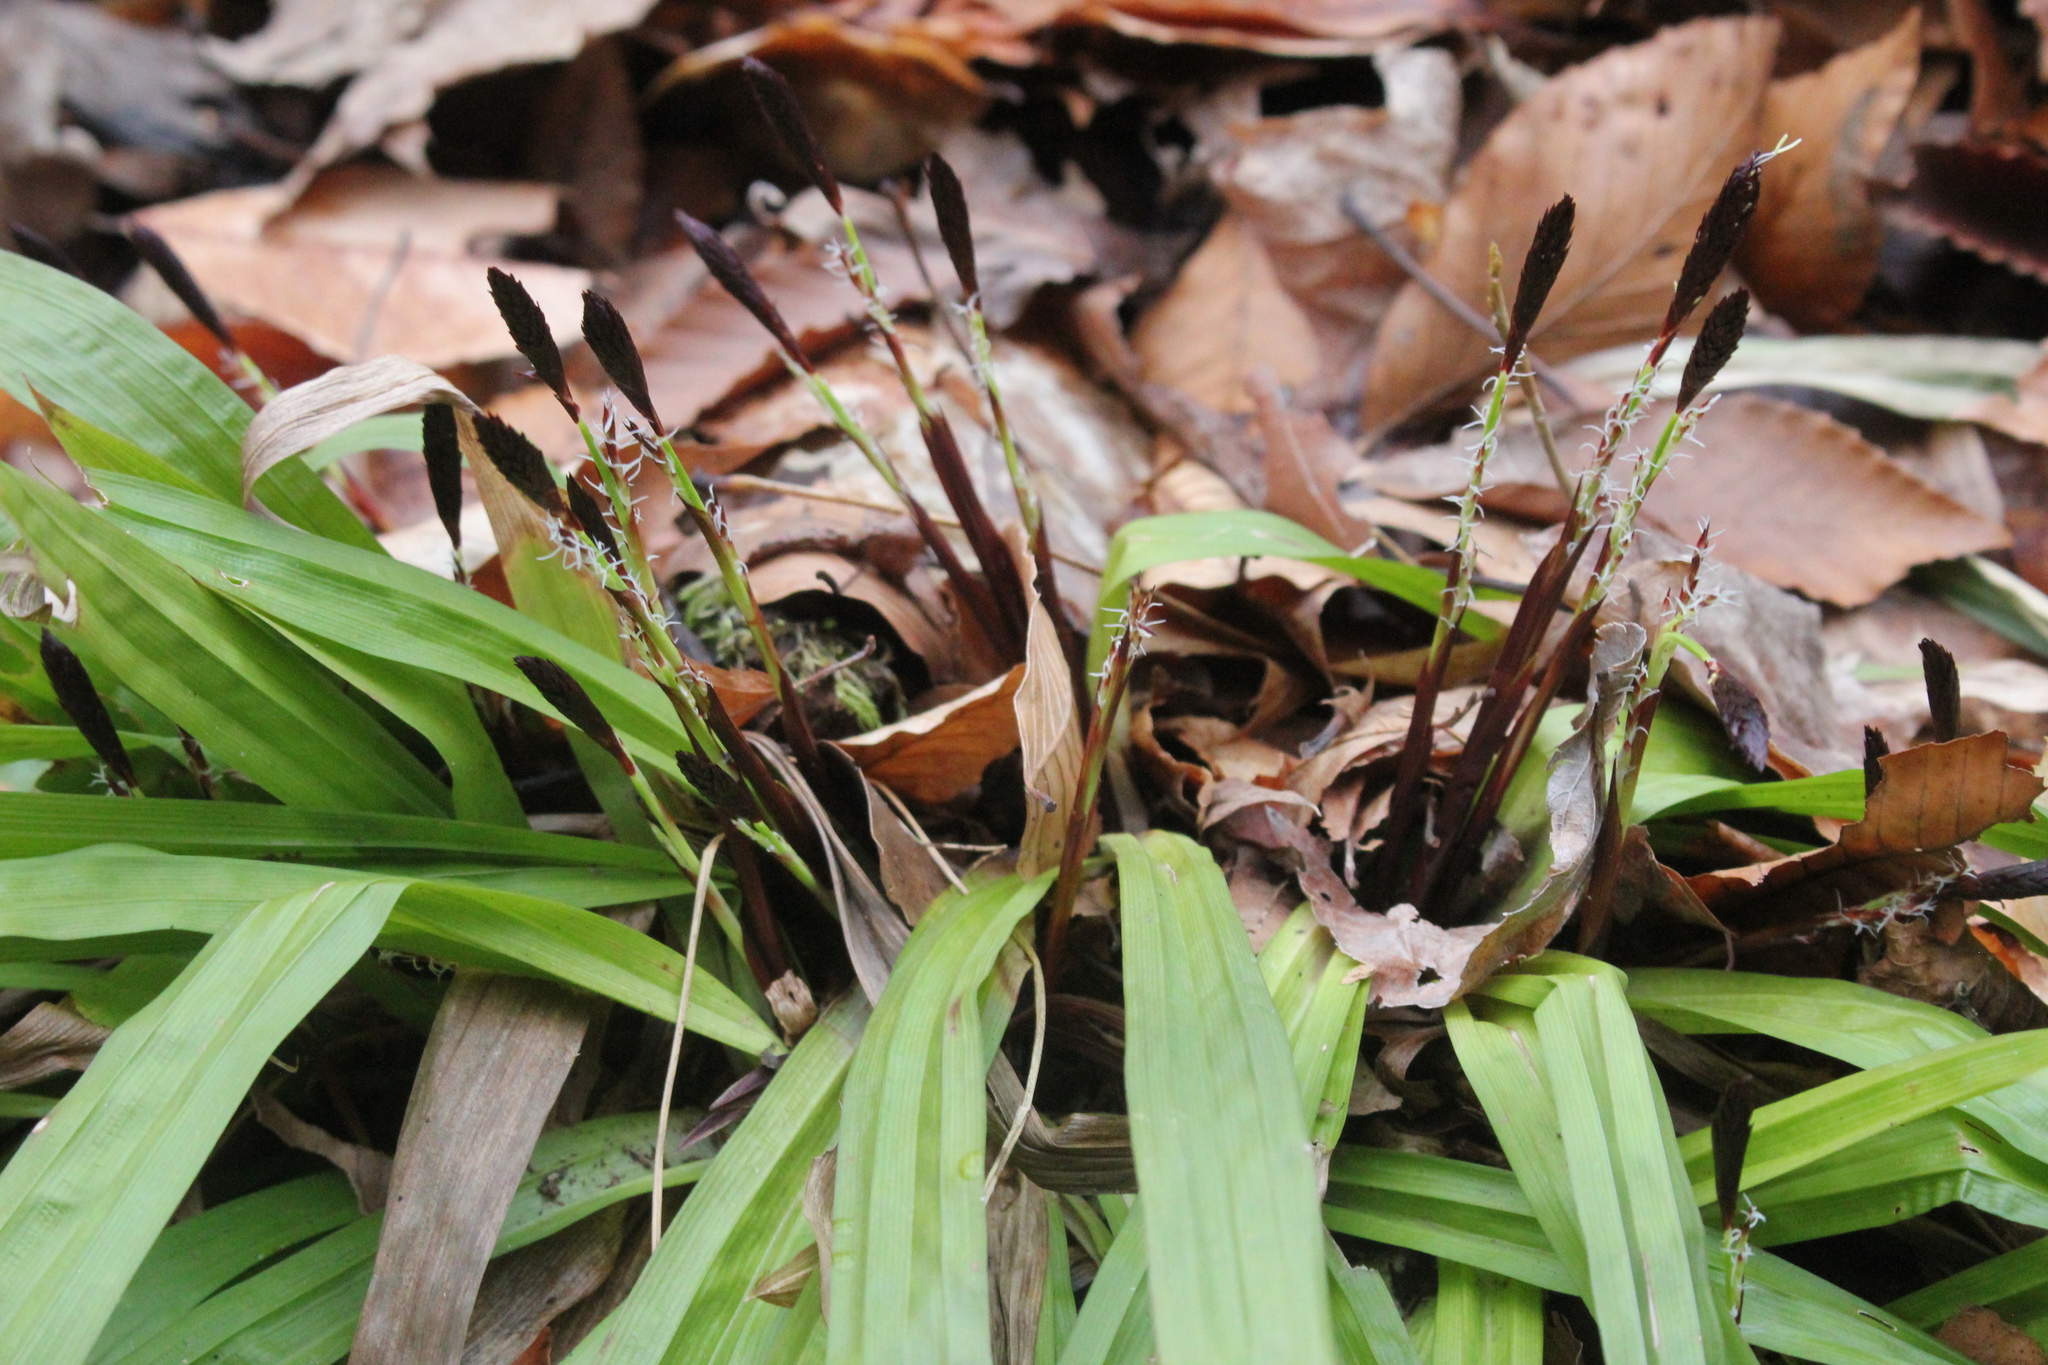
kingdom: Plantae
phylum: Tracheophyta
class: Liliopsida
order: Poales
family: Cyperaceae
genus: Carex
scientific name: Carex plantaginea
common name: Plantain-leaved sedge
